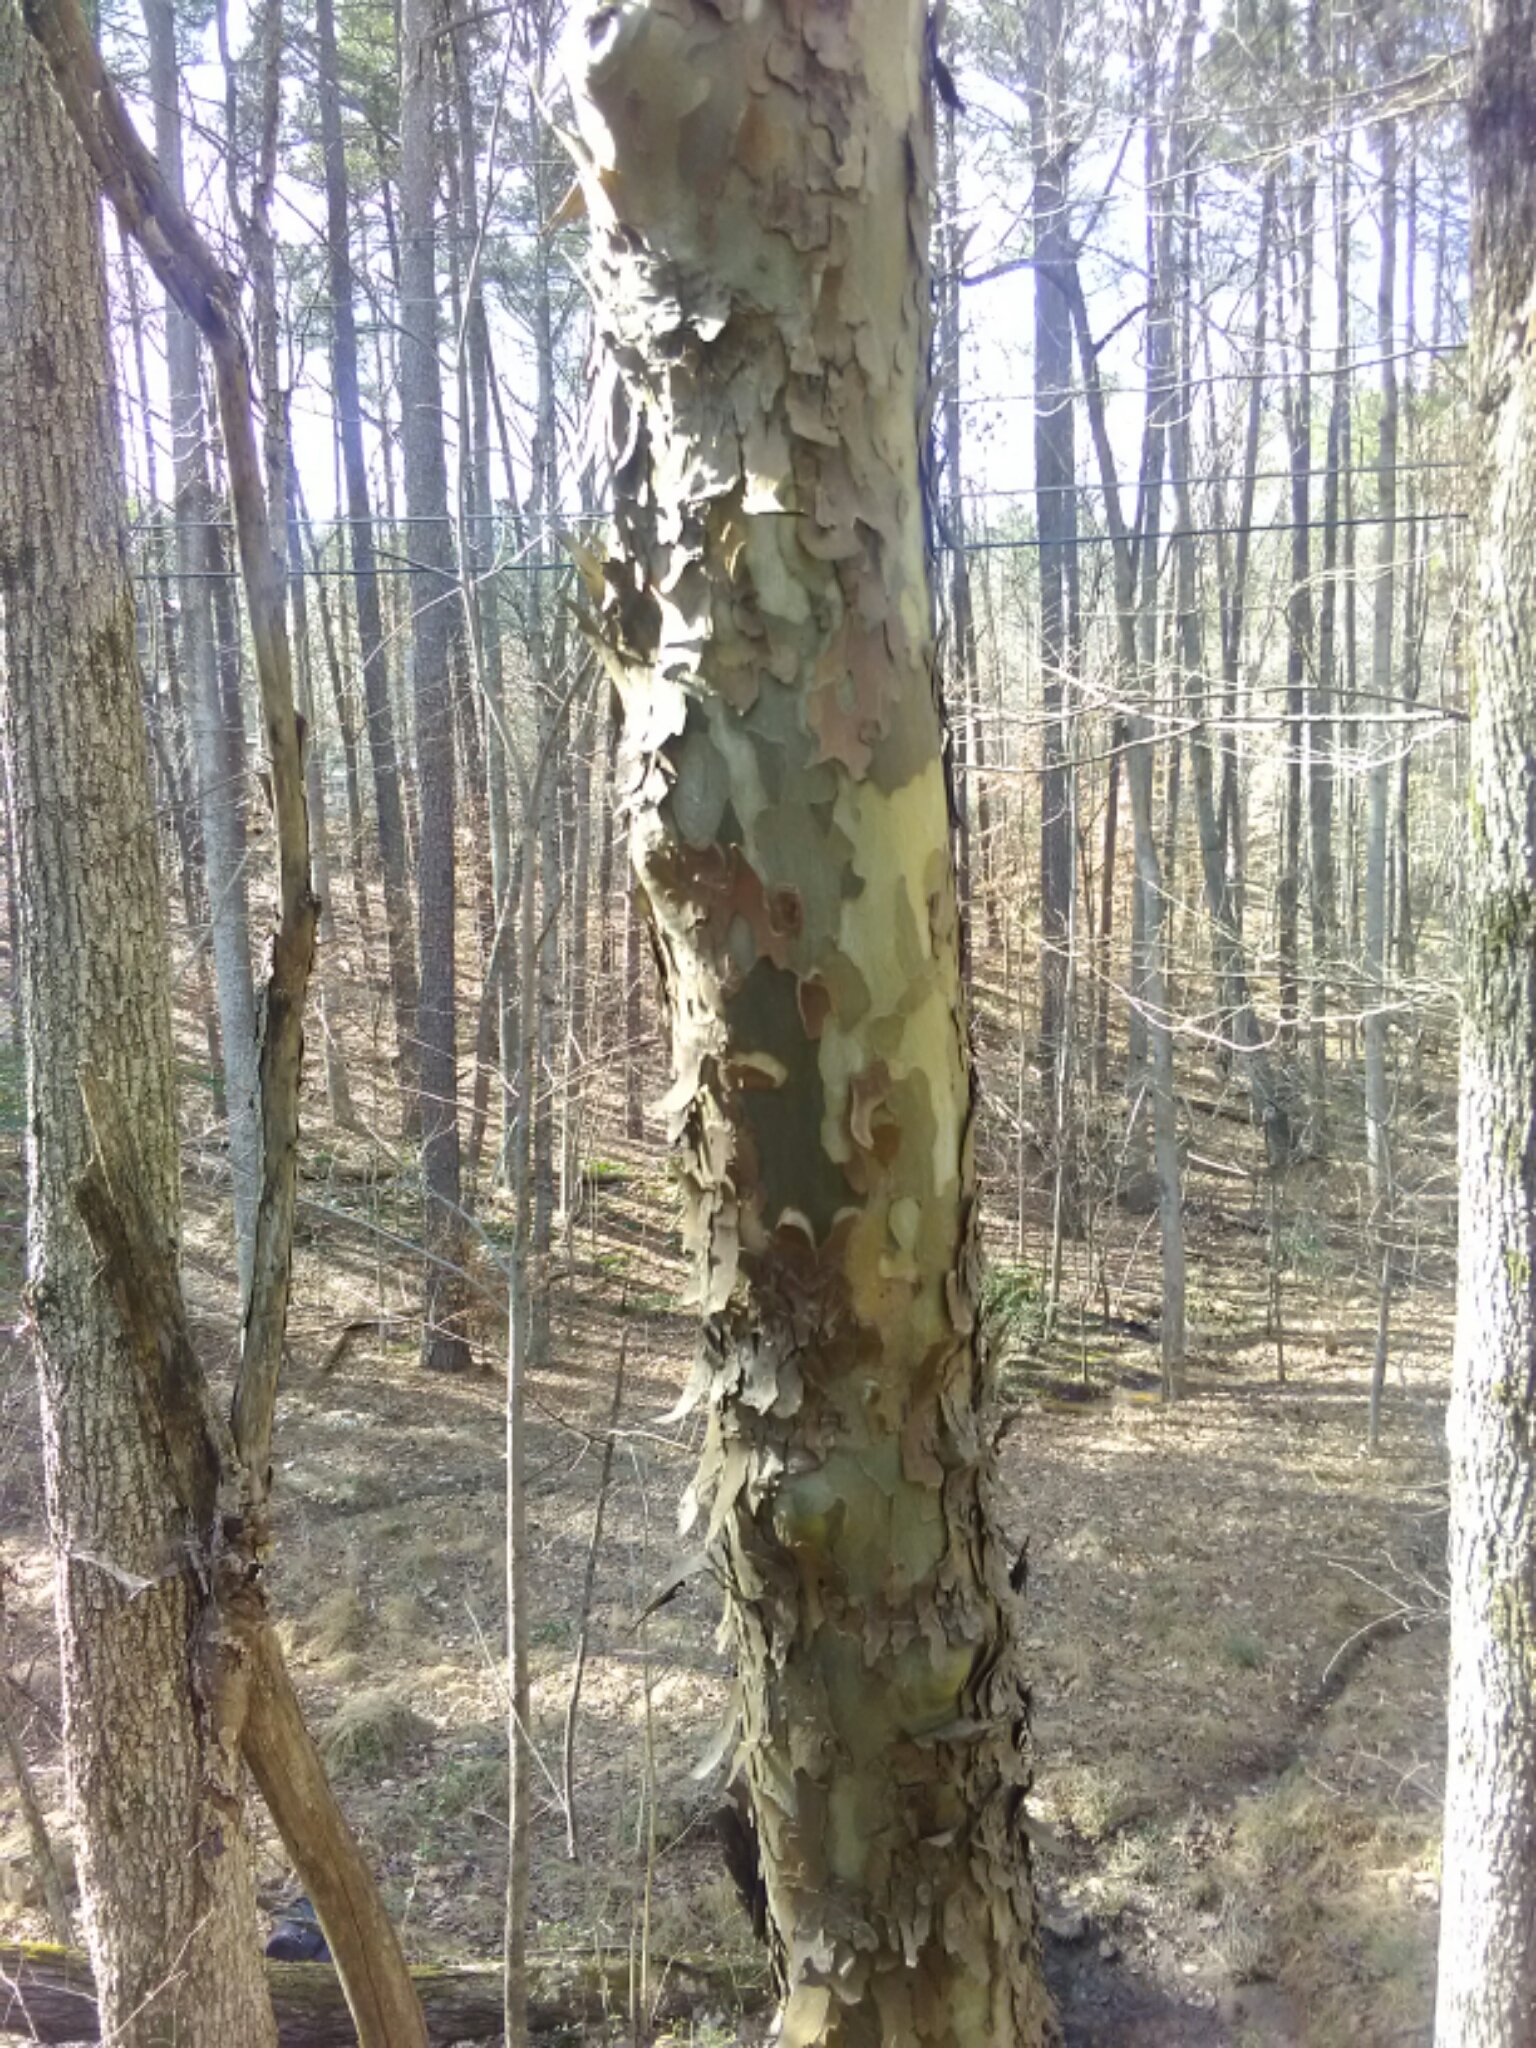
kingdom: Plantae
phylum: Tracheophyta
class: Magnoliopsida
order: Proteales
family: Platanaceae
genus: Platanus
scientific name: Platanus occidentalis
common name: American sycamore
